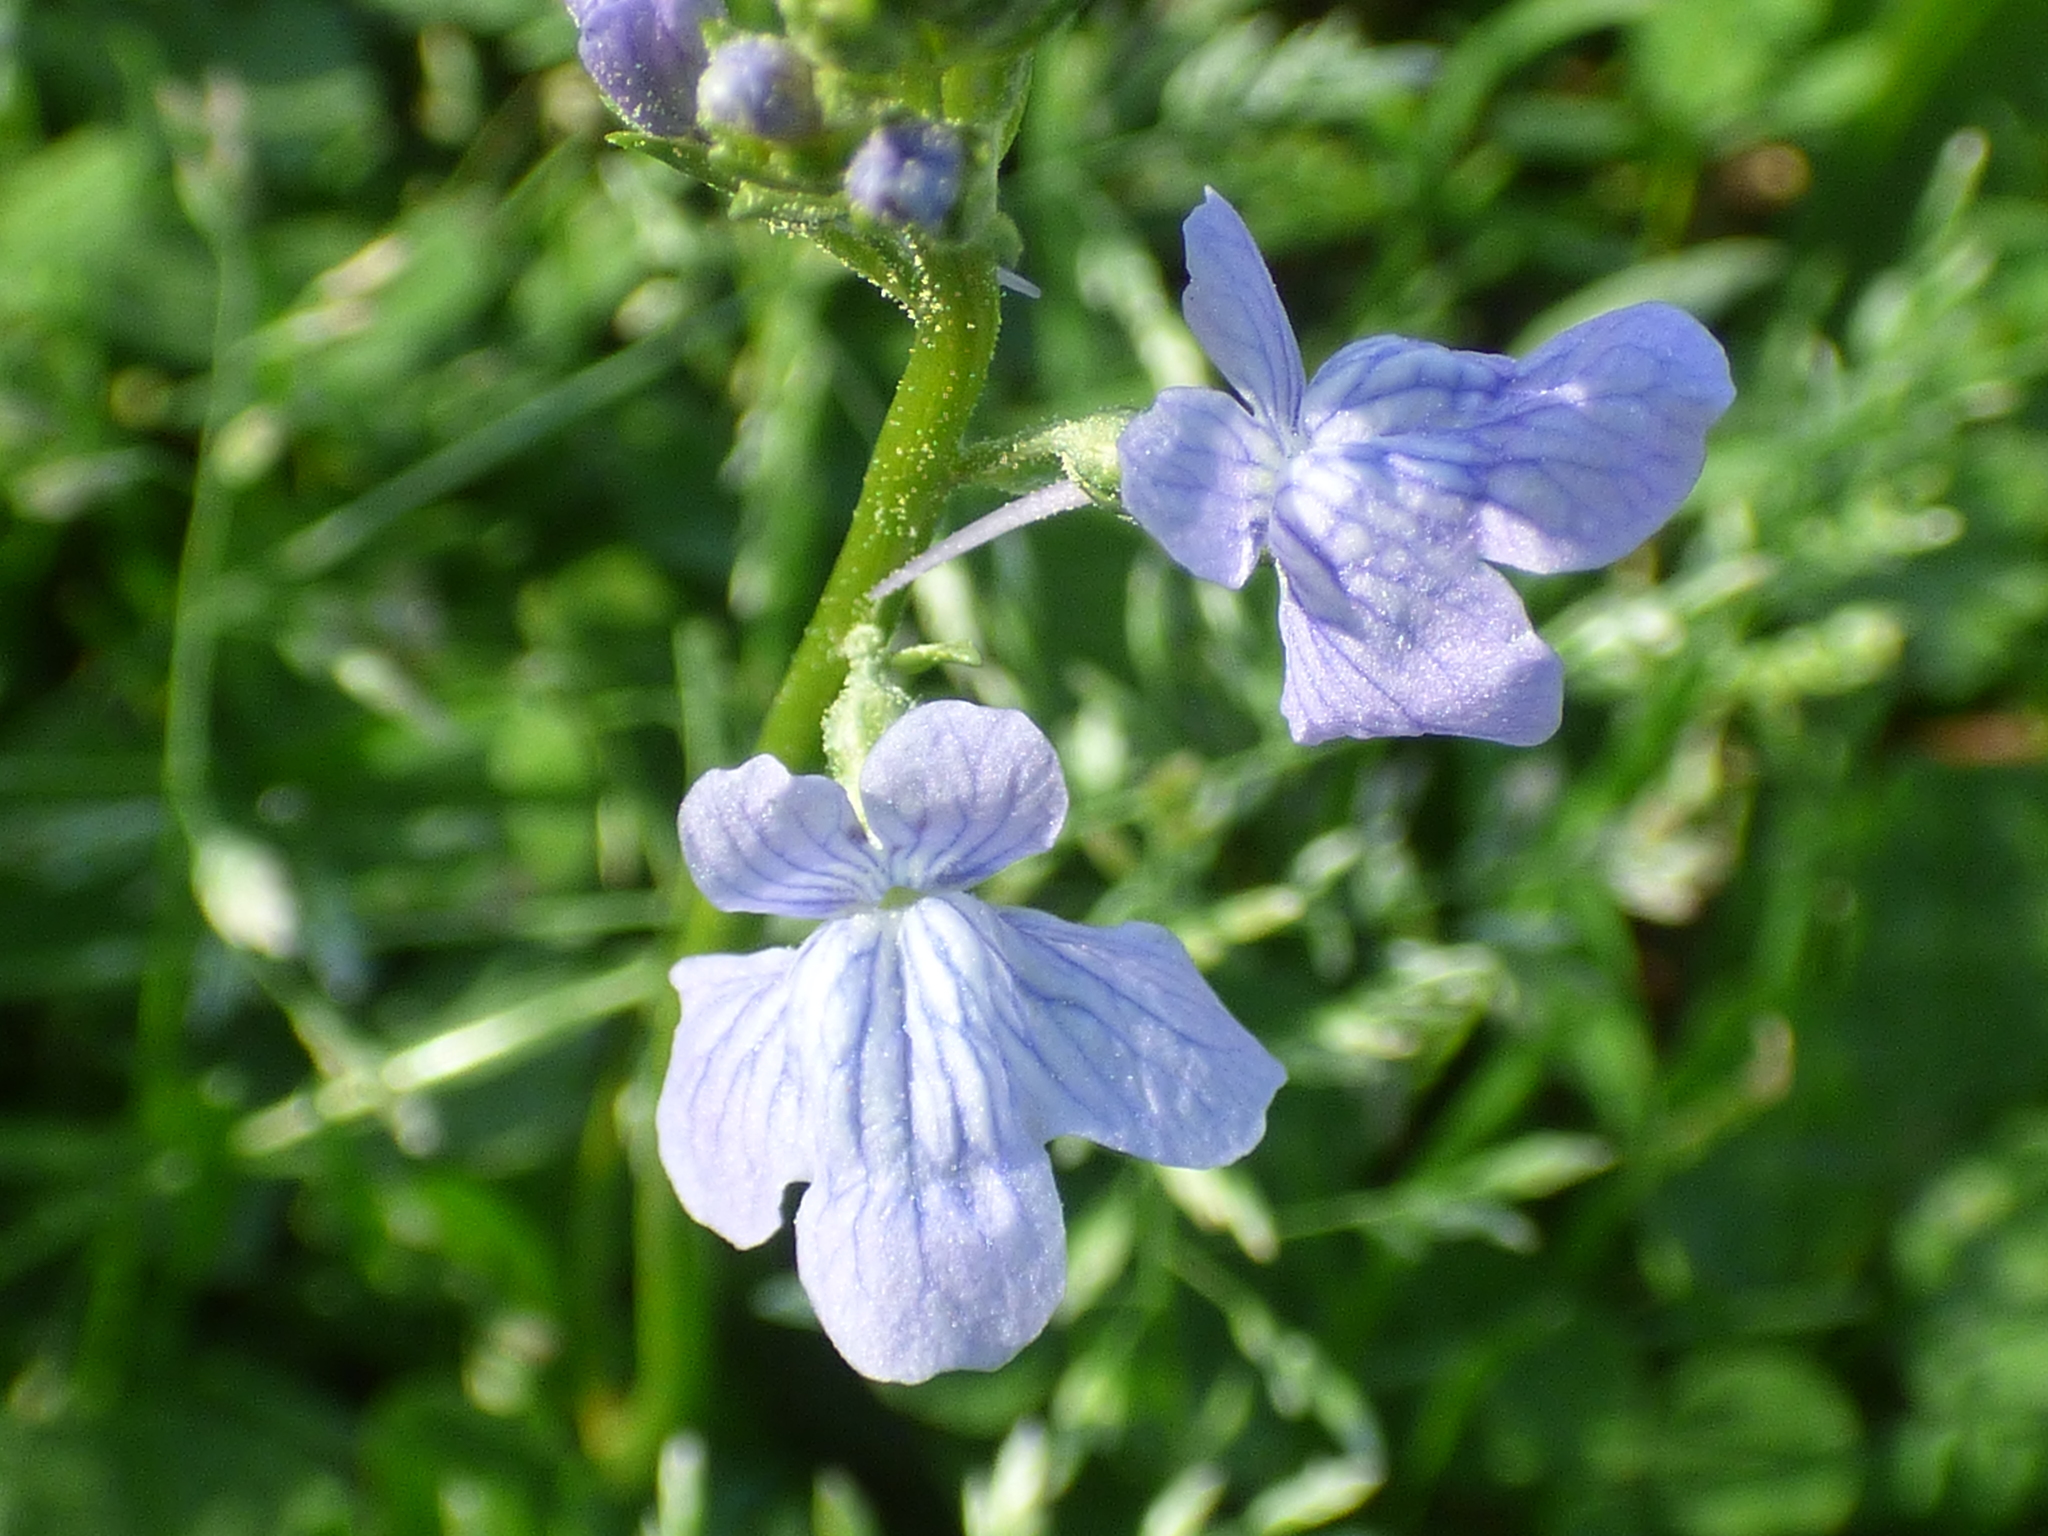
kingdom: Plantae
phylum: Tracheophyta
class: Magnoliopsida
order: Lamiales
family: Plantaginaceae
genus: Nuttallanthus
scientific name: Nuttallanthus texanus
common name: Texas toadflax
